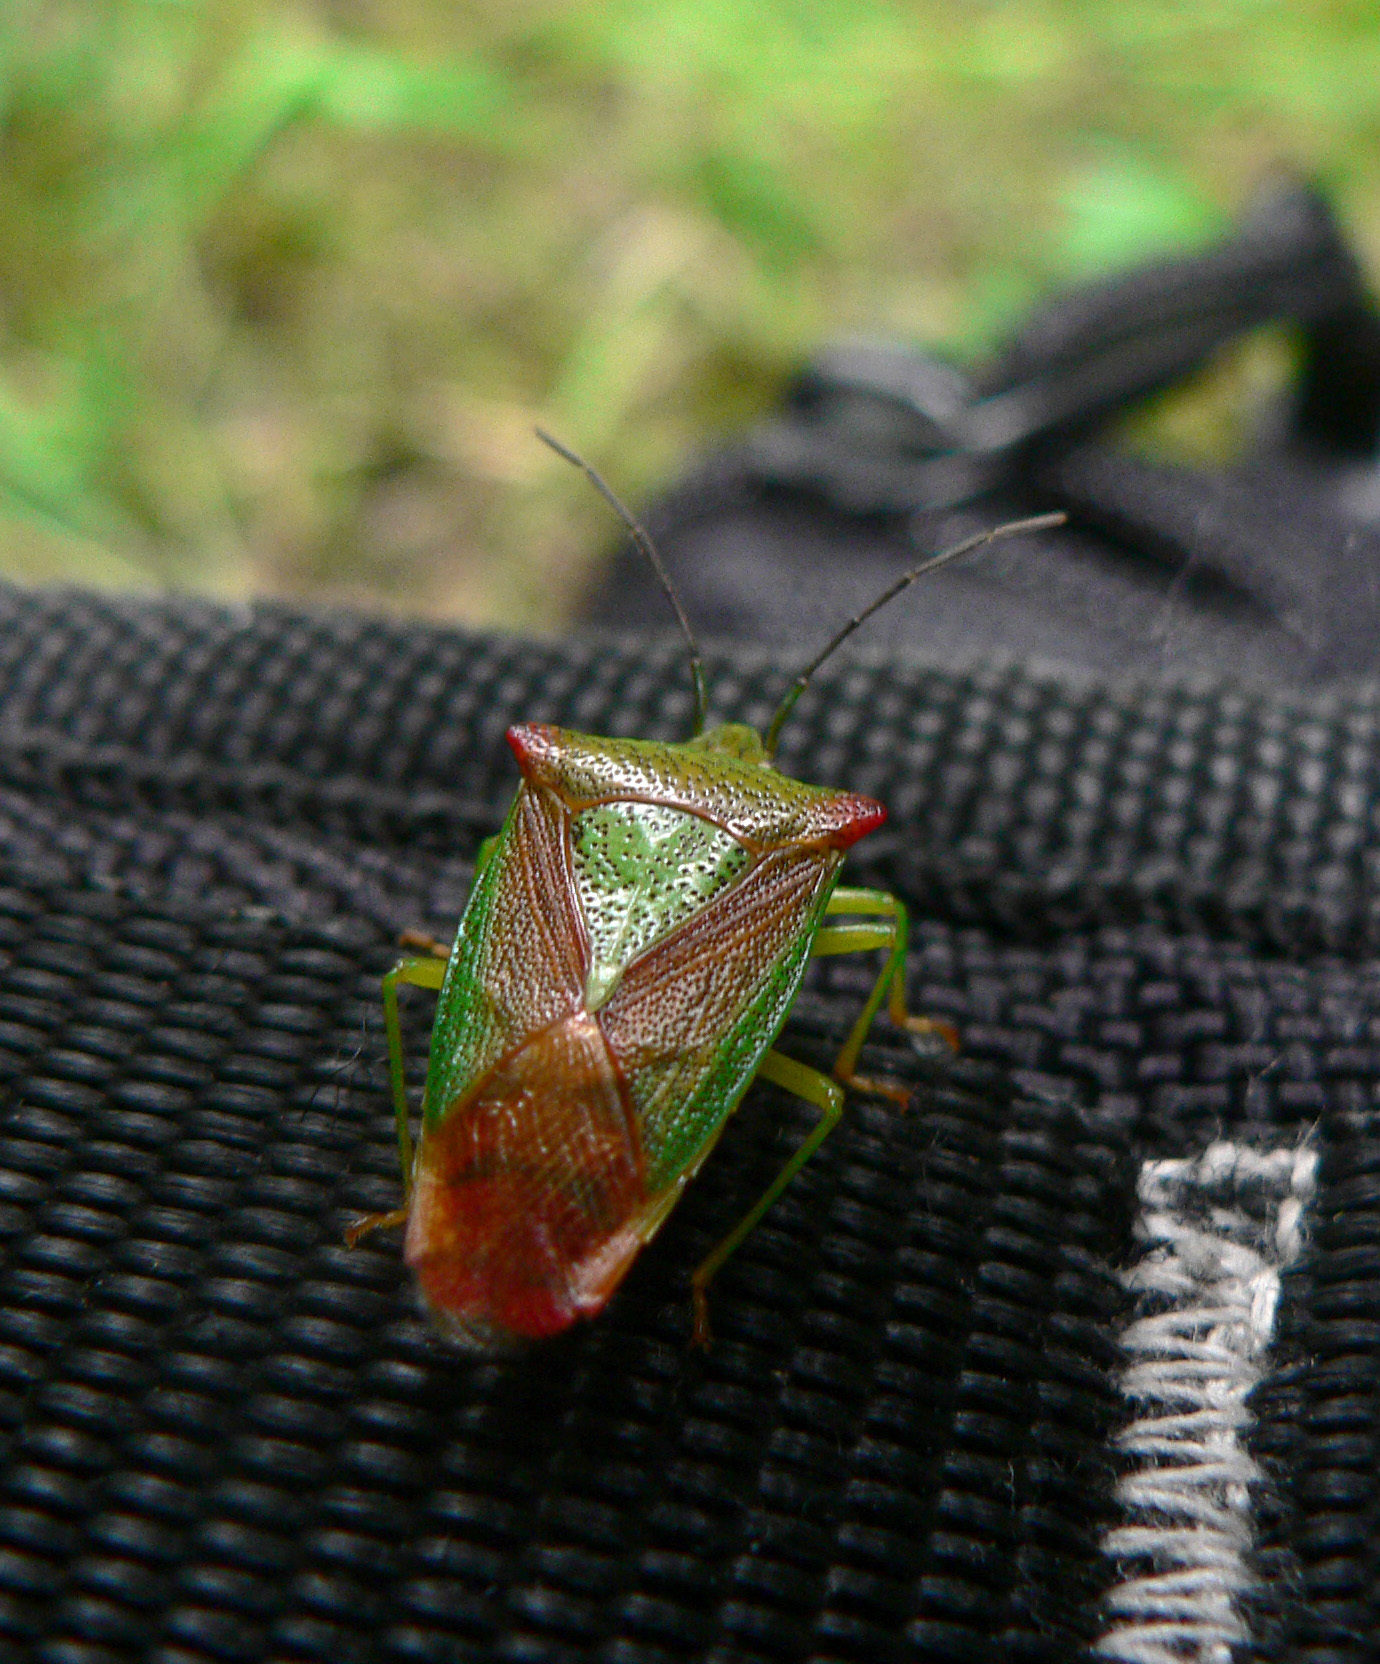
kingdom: Animalia
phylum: Arthropoda
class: Insecta
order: Hemiptera
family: Acanthosomatidae
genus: Acanthosoma
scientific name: Acanthosoma haemorrhoidale
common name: Hawthorn shieldbug
